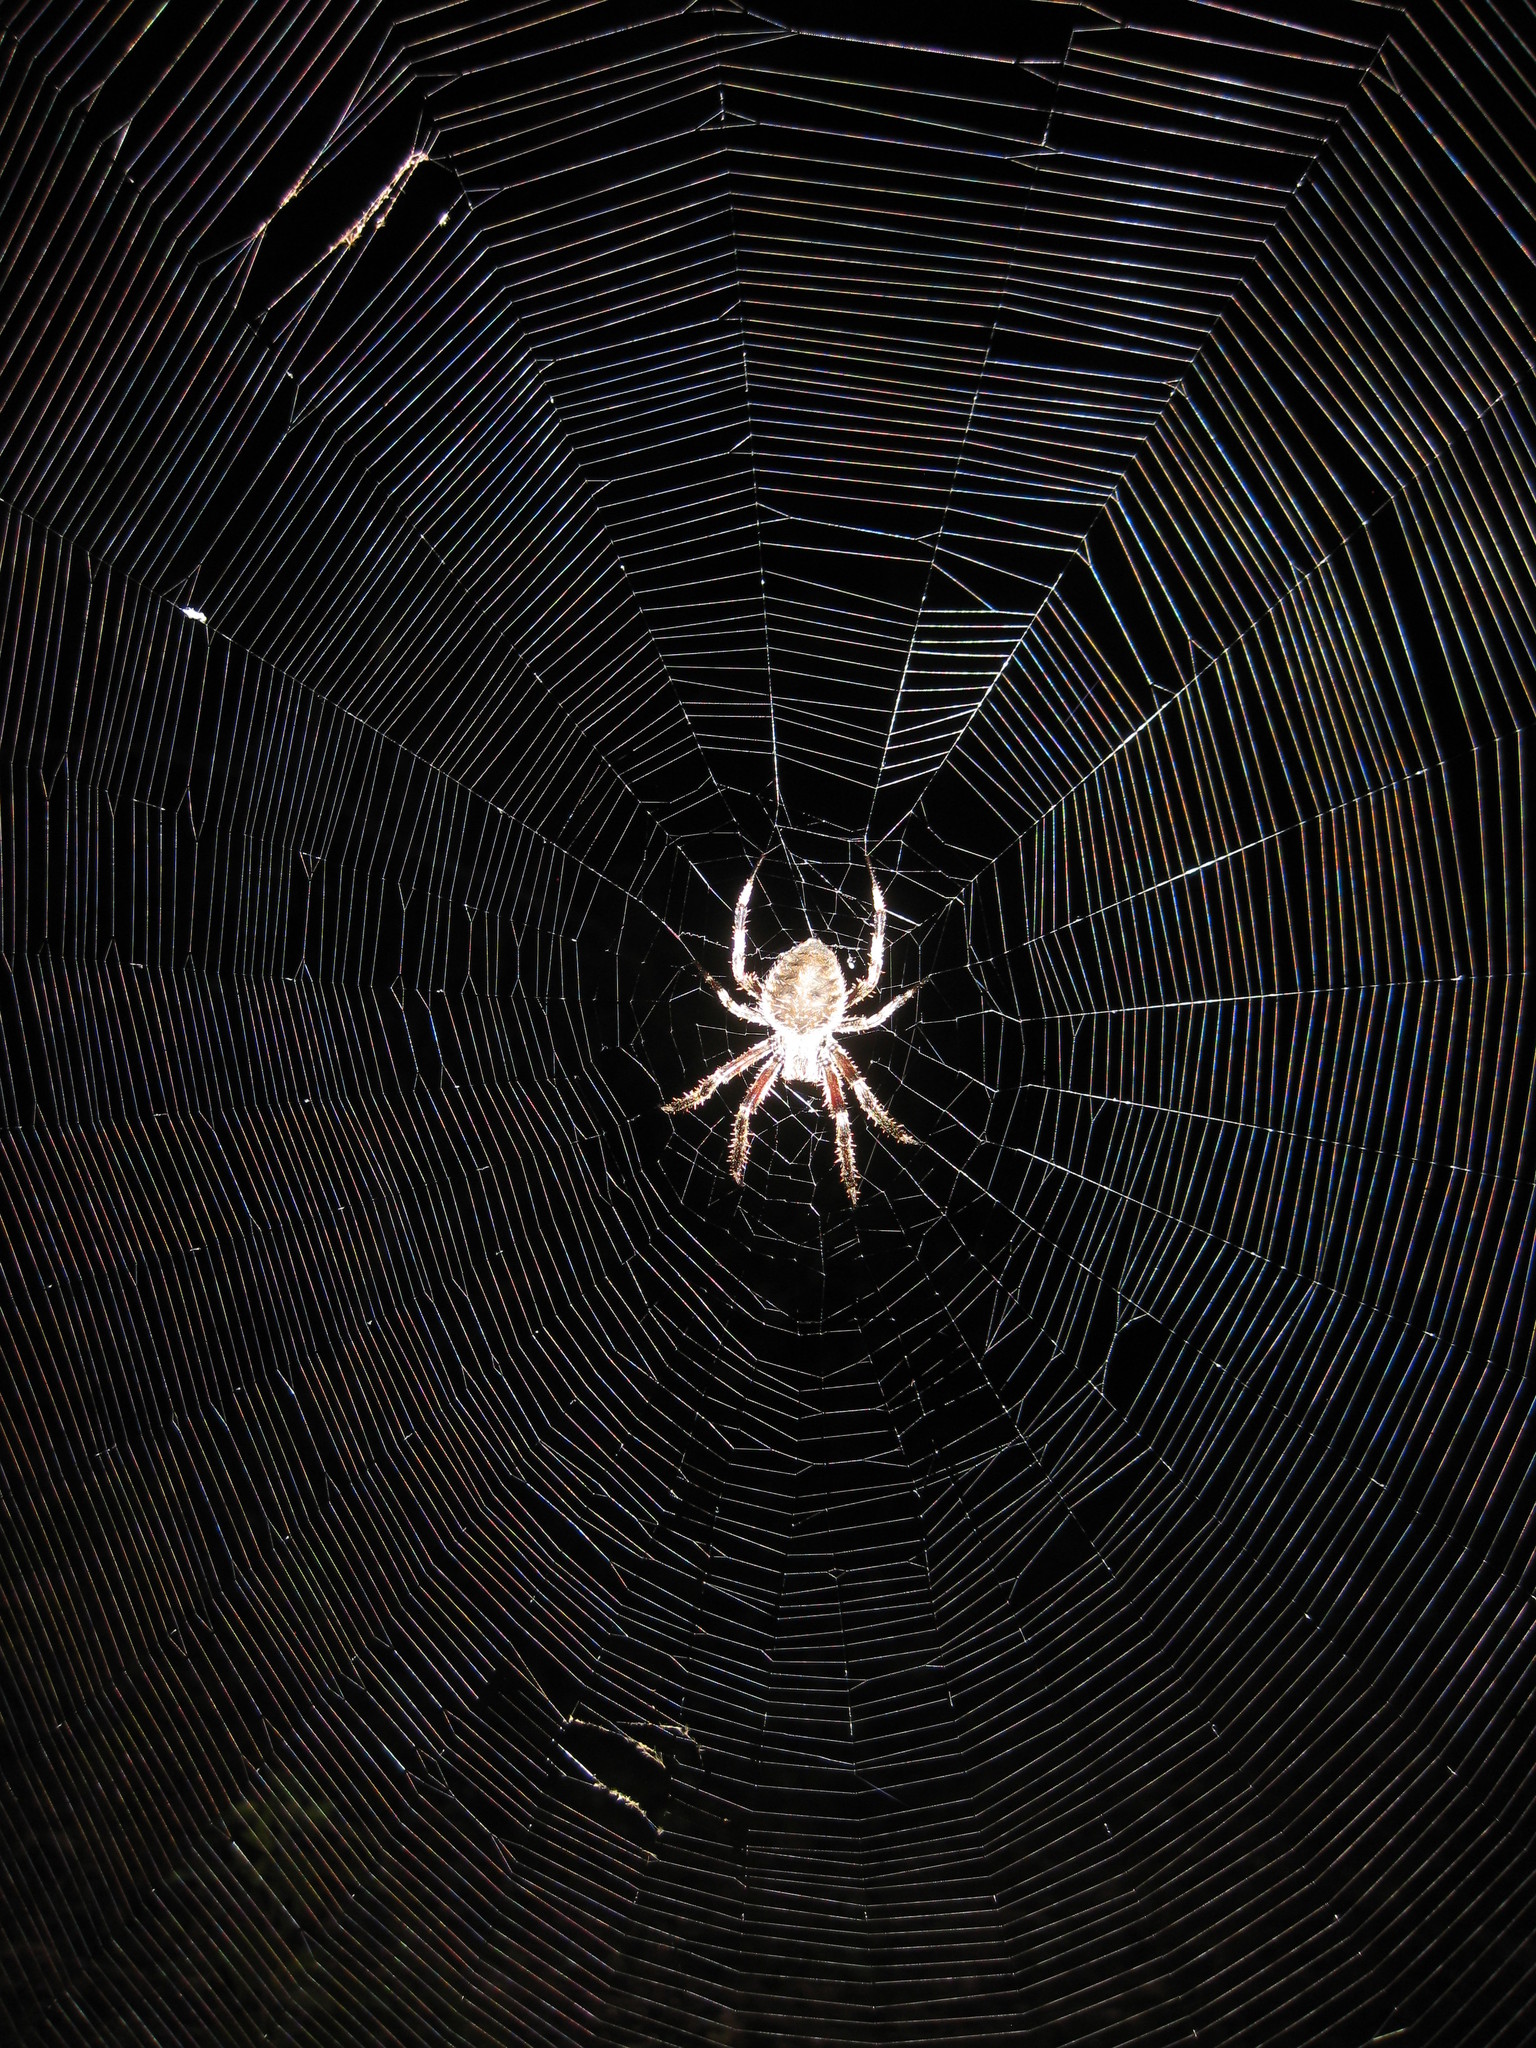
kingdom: Animalia
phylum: Arthropoda
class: Arachnida
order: Araneae
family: Araneidae
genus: Neoscona
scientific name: Neoscona crucifera
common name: Spotted orbweaver
